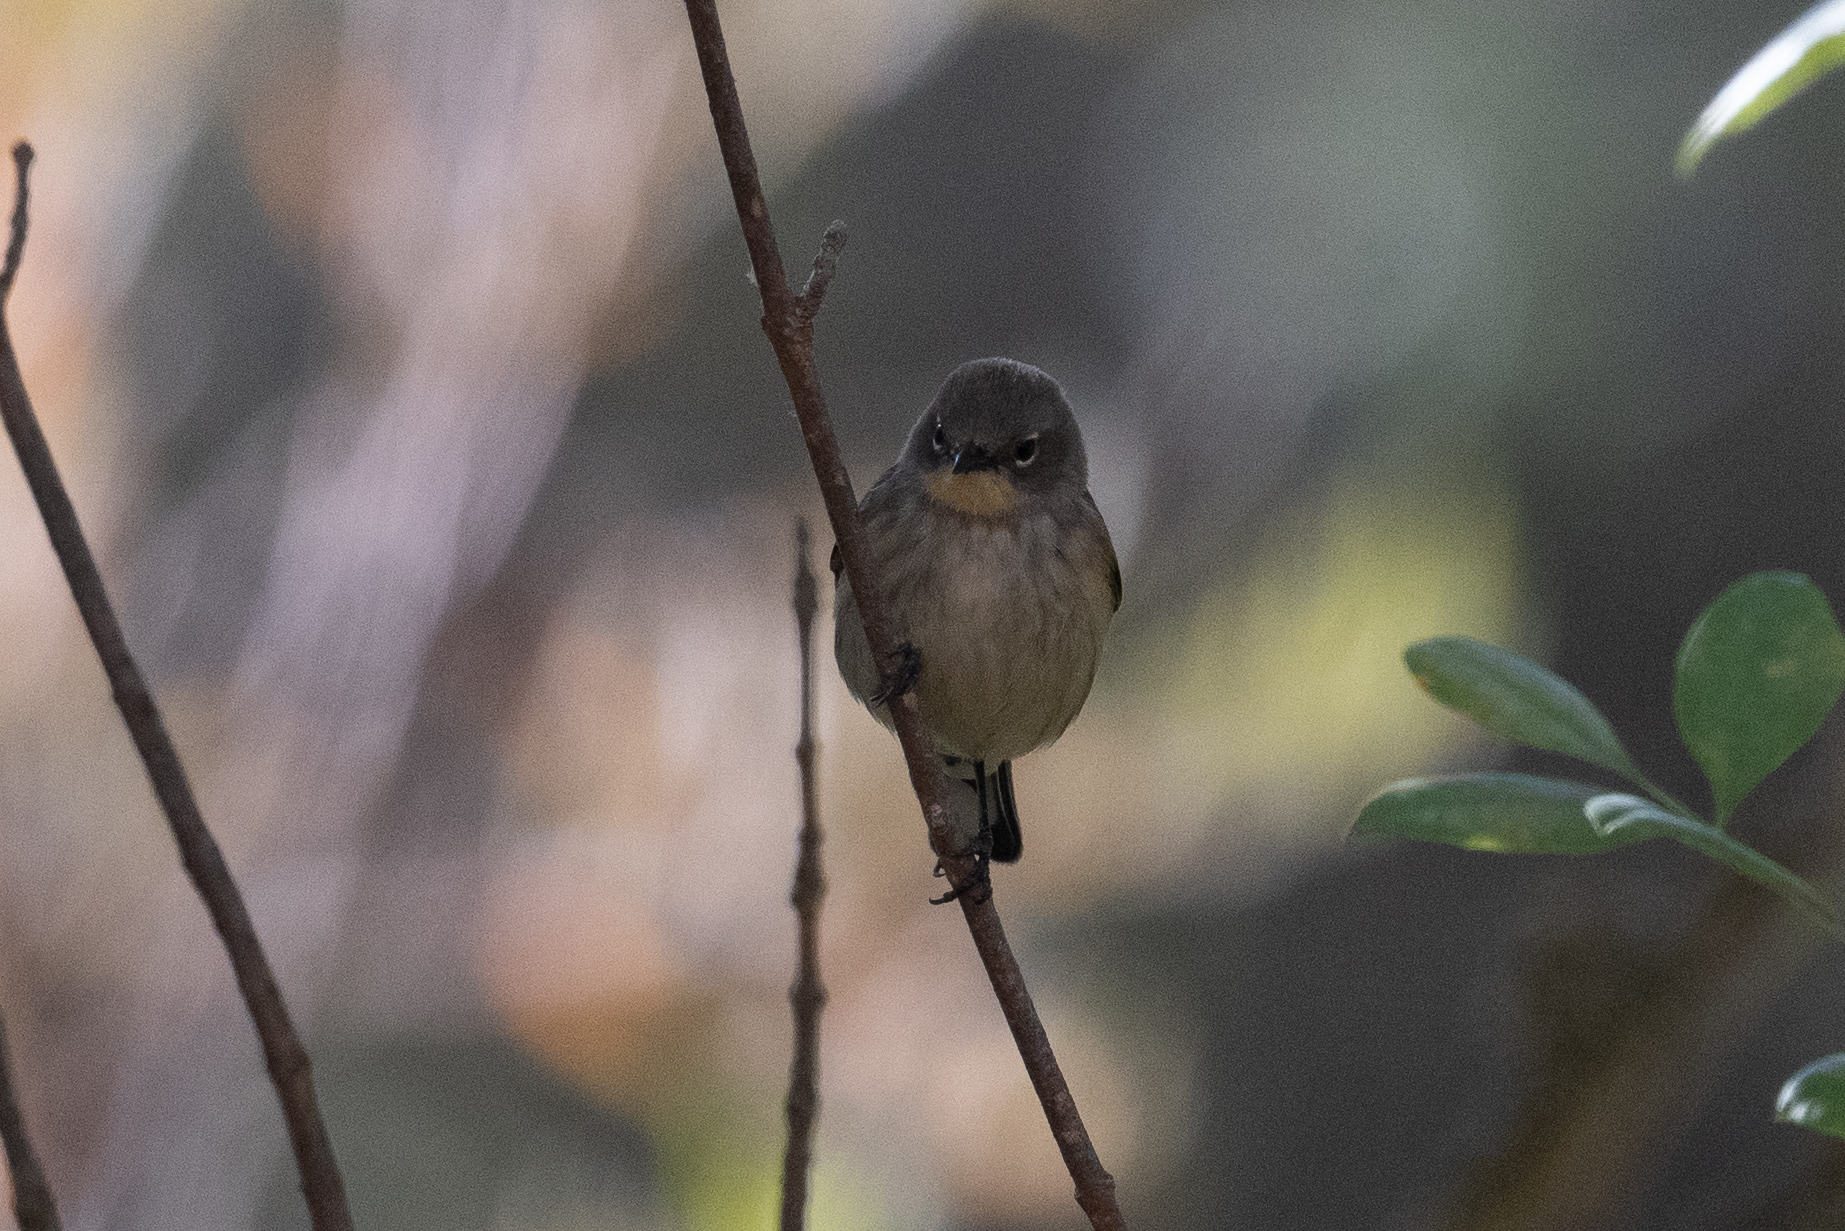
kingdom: Animalia
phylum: Chordata
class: Aves
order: Passeriformes
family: Parulidae
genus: Setophaga
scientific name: Setophaga coronata
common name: Myrtle warbler
